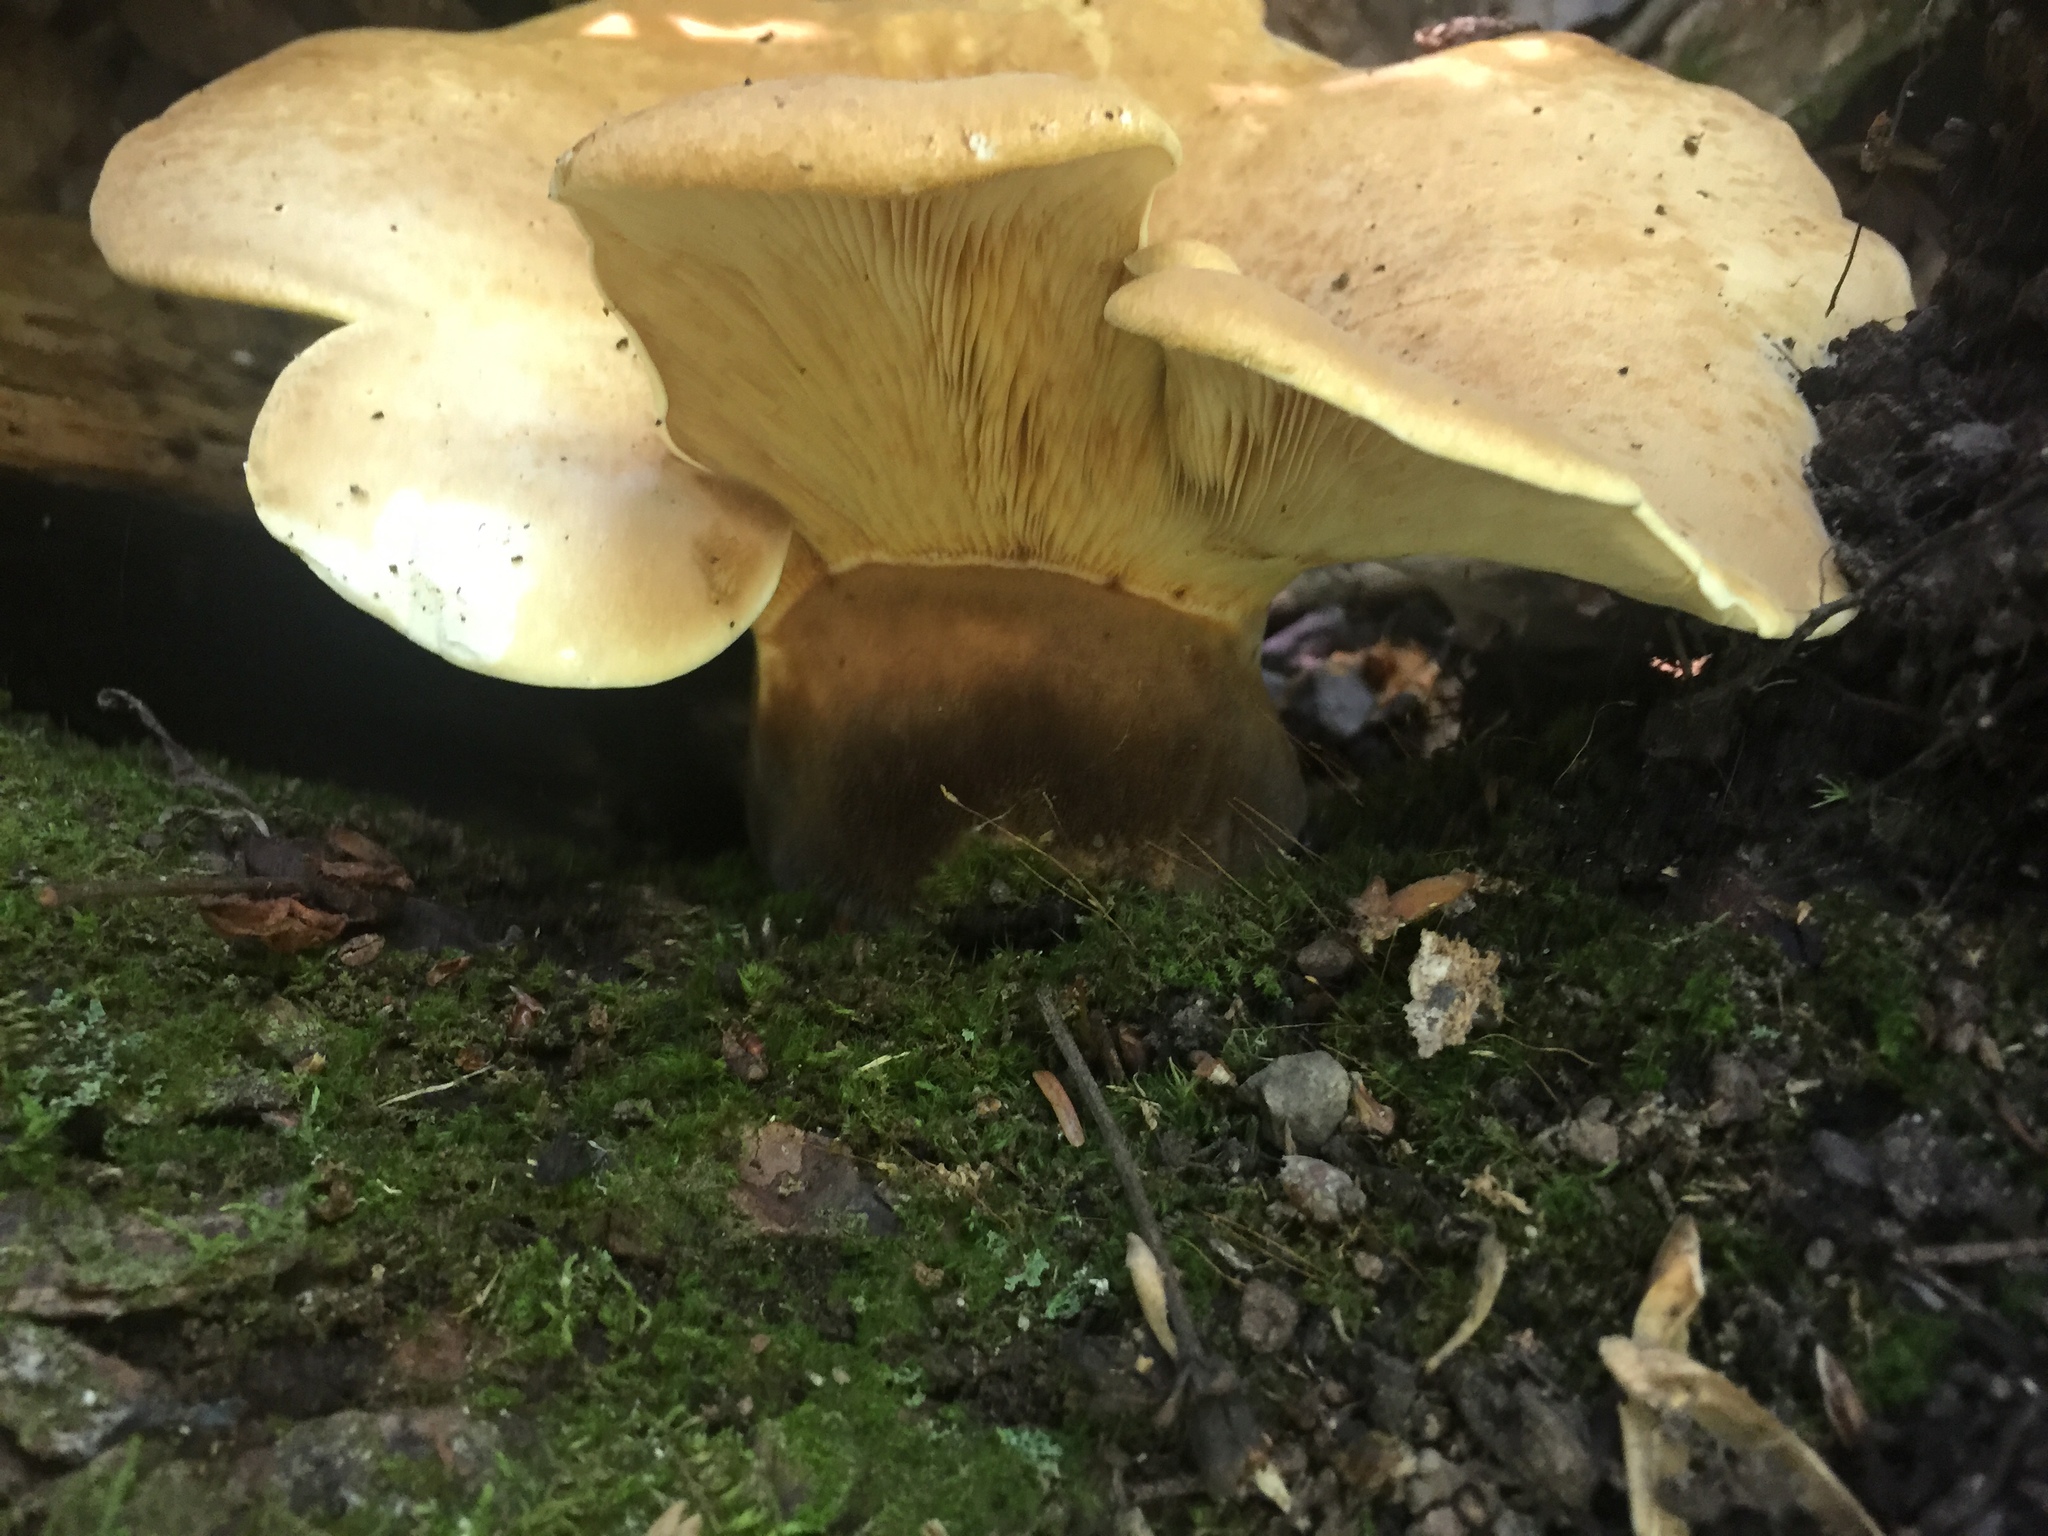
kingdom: Fungi
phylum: Basidiomycota
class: Agaricomycetes
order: Boletales
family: Tapinellaceae
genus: Tapinella
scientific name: Tapinella atrotomentosa
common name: Velvet rollrim
